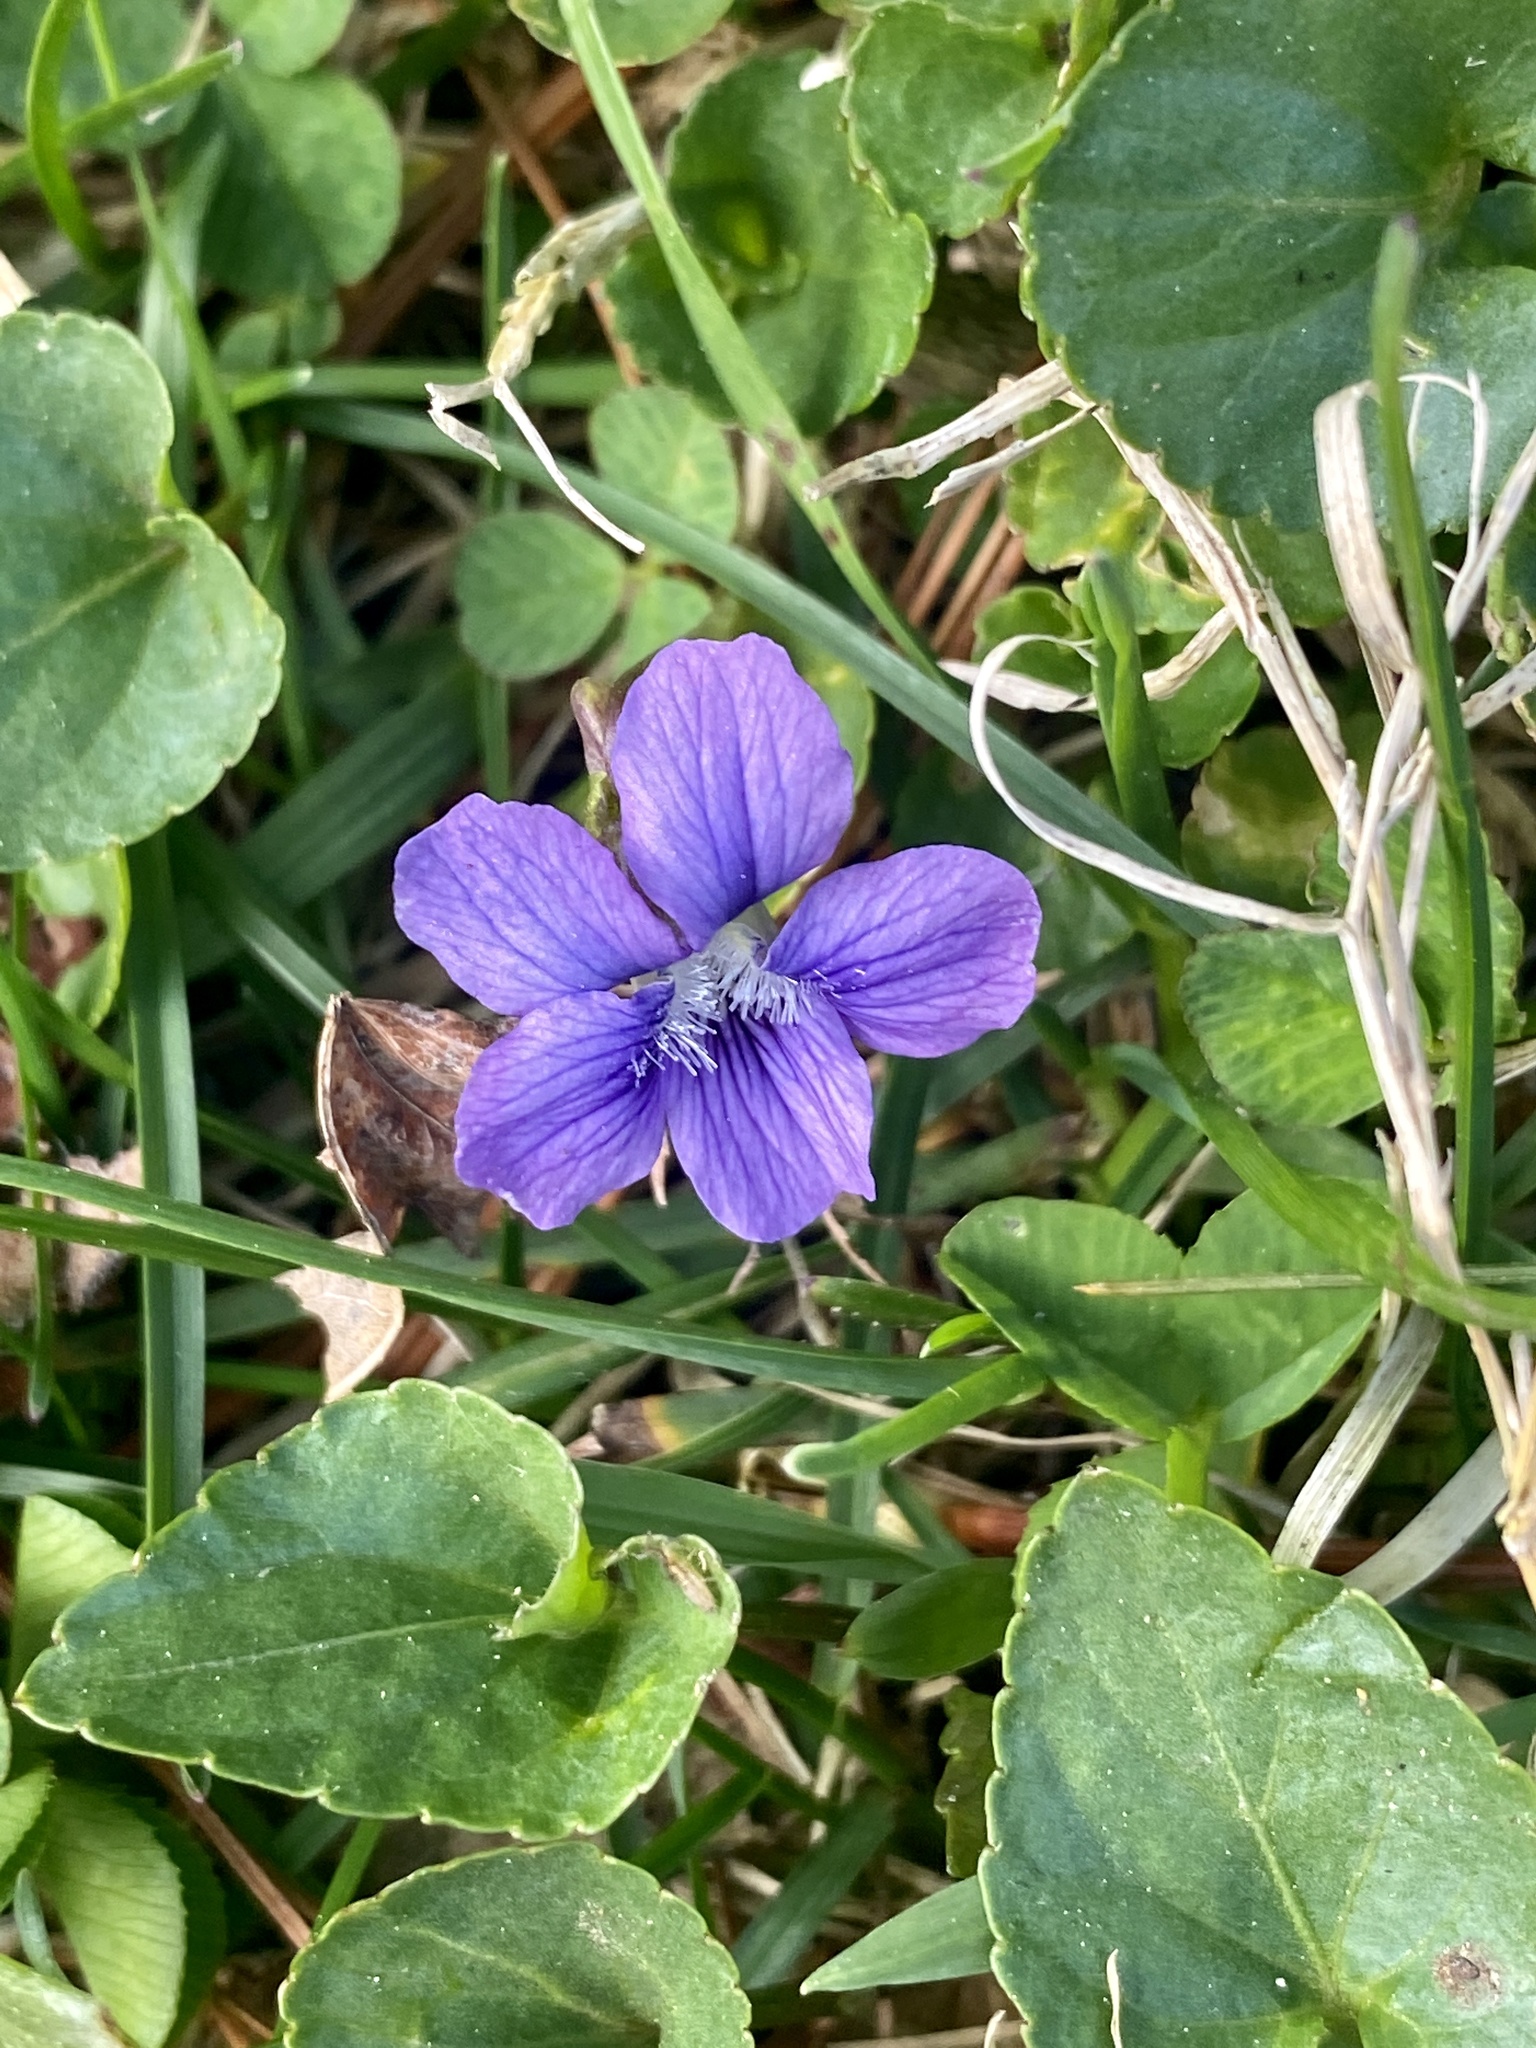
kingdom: Plantae
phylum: Tracheophyta
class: Magnoliopsida
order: Malpighiales
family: Violaceae
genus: Viola
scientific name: Viola sororia
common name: Dooryard violet
